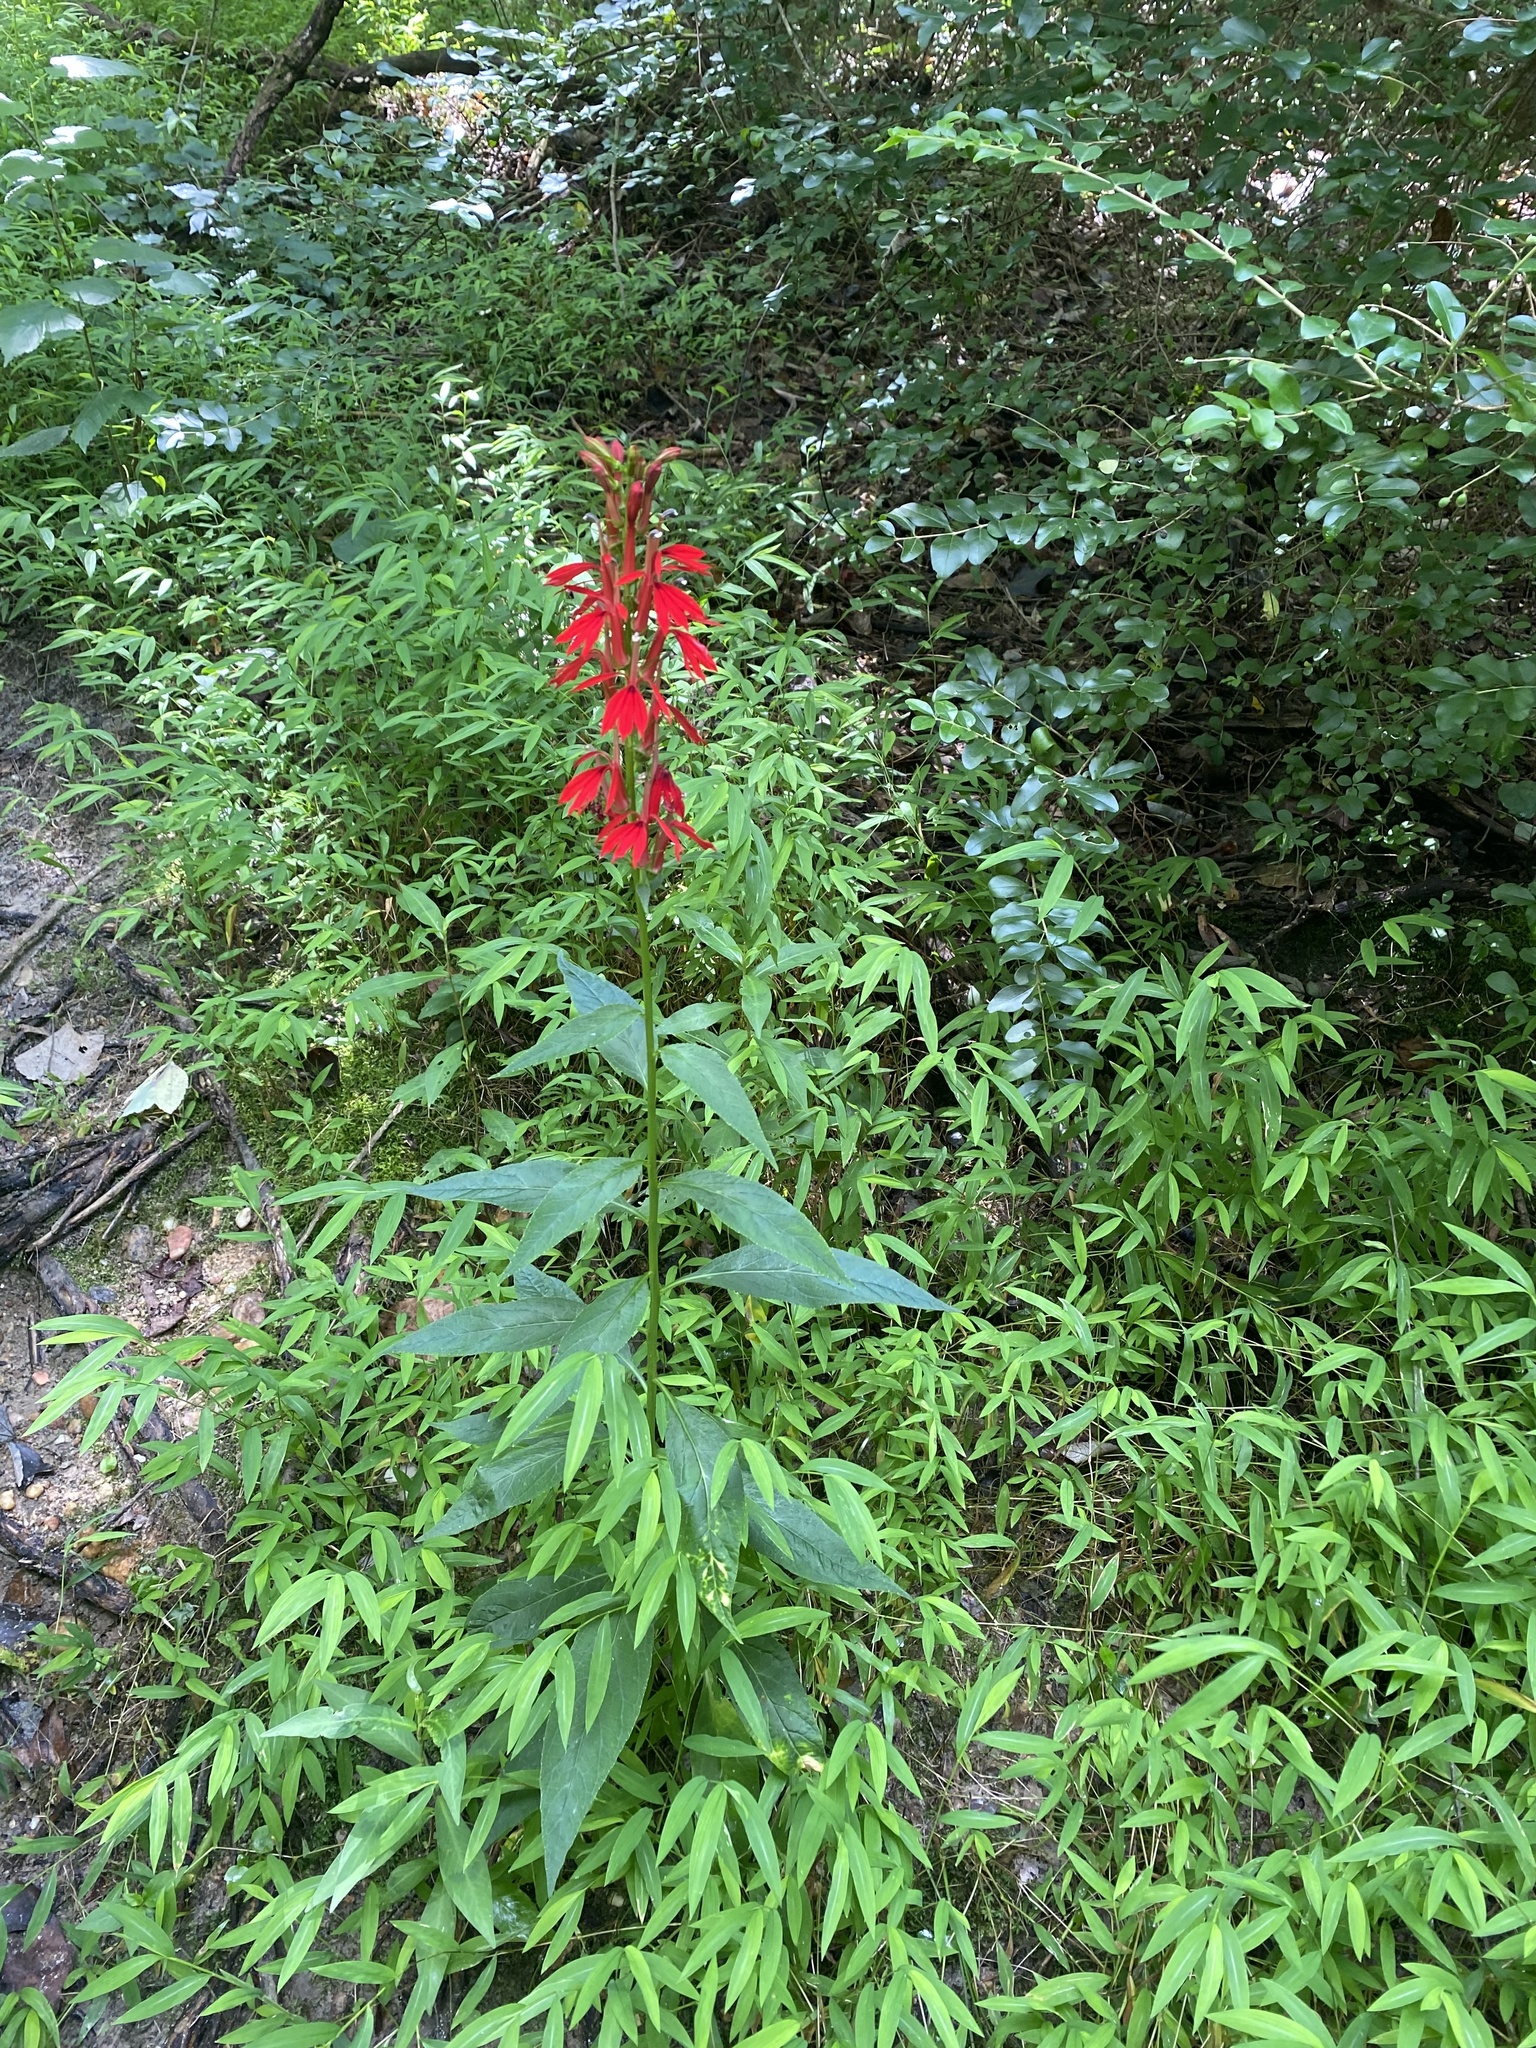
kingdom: Plantae
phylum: Tracheophyta
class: Magnoliopsida
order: Asterales
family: Campanulaceae
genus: Lobelia
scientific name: Lobelia cardinalis
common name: Cardinal flower
